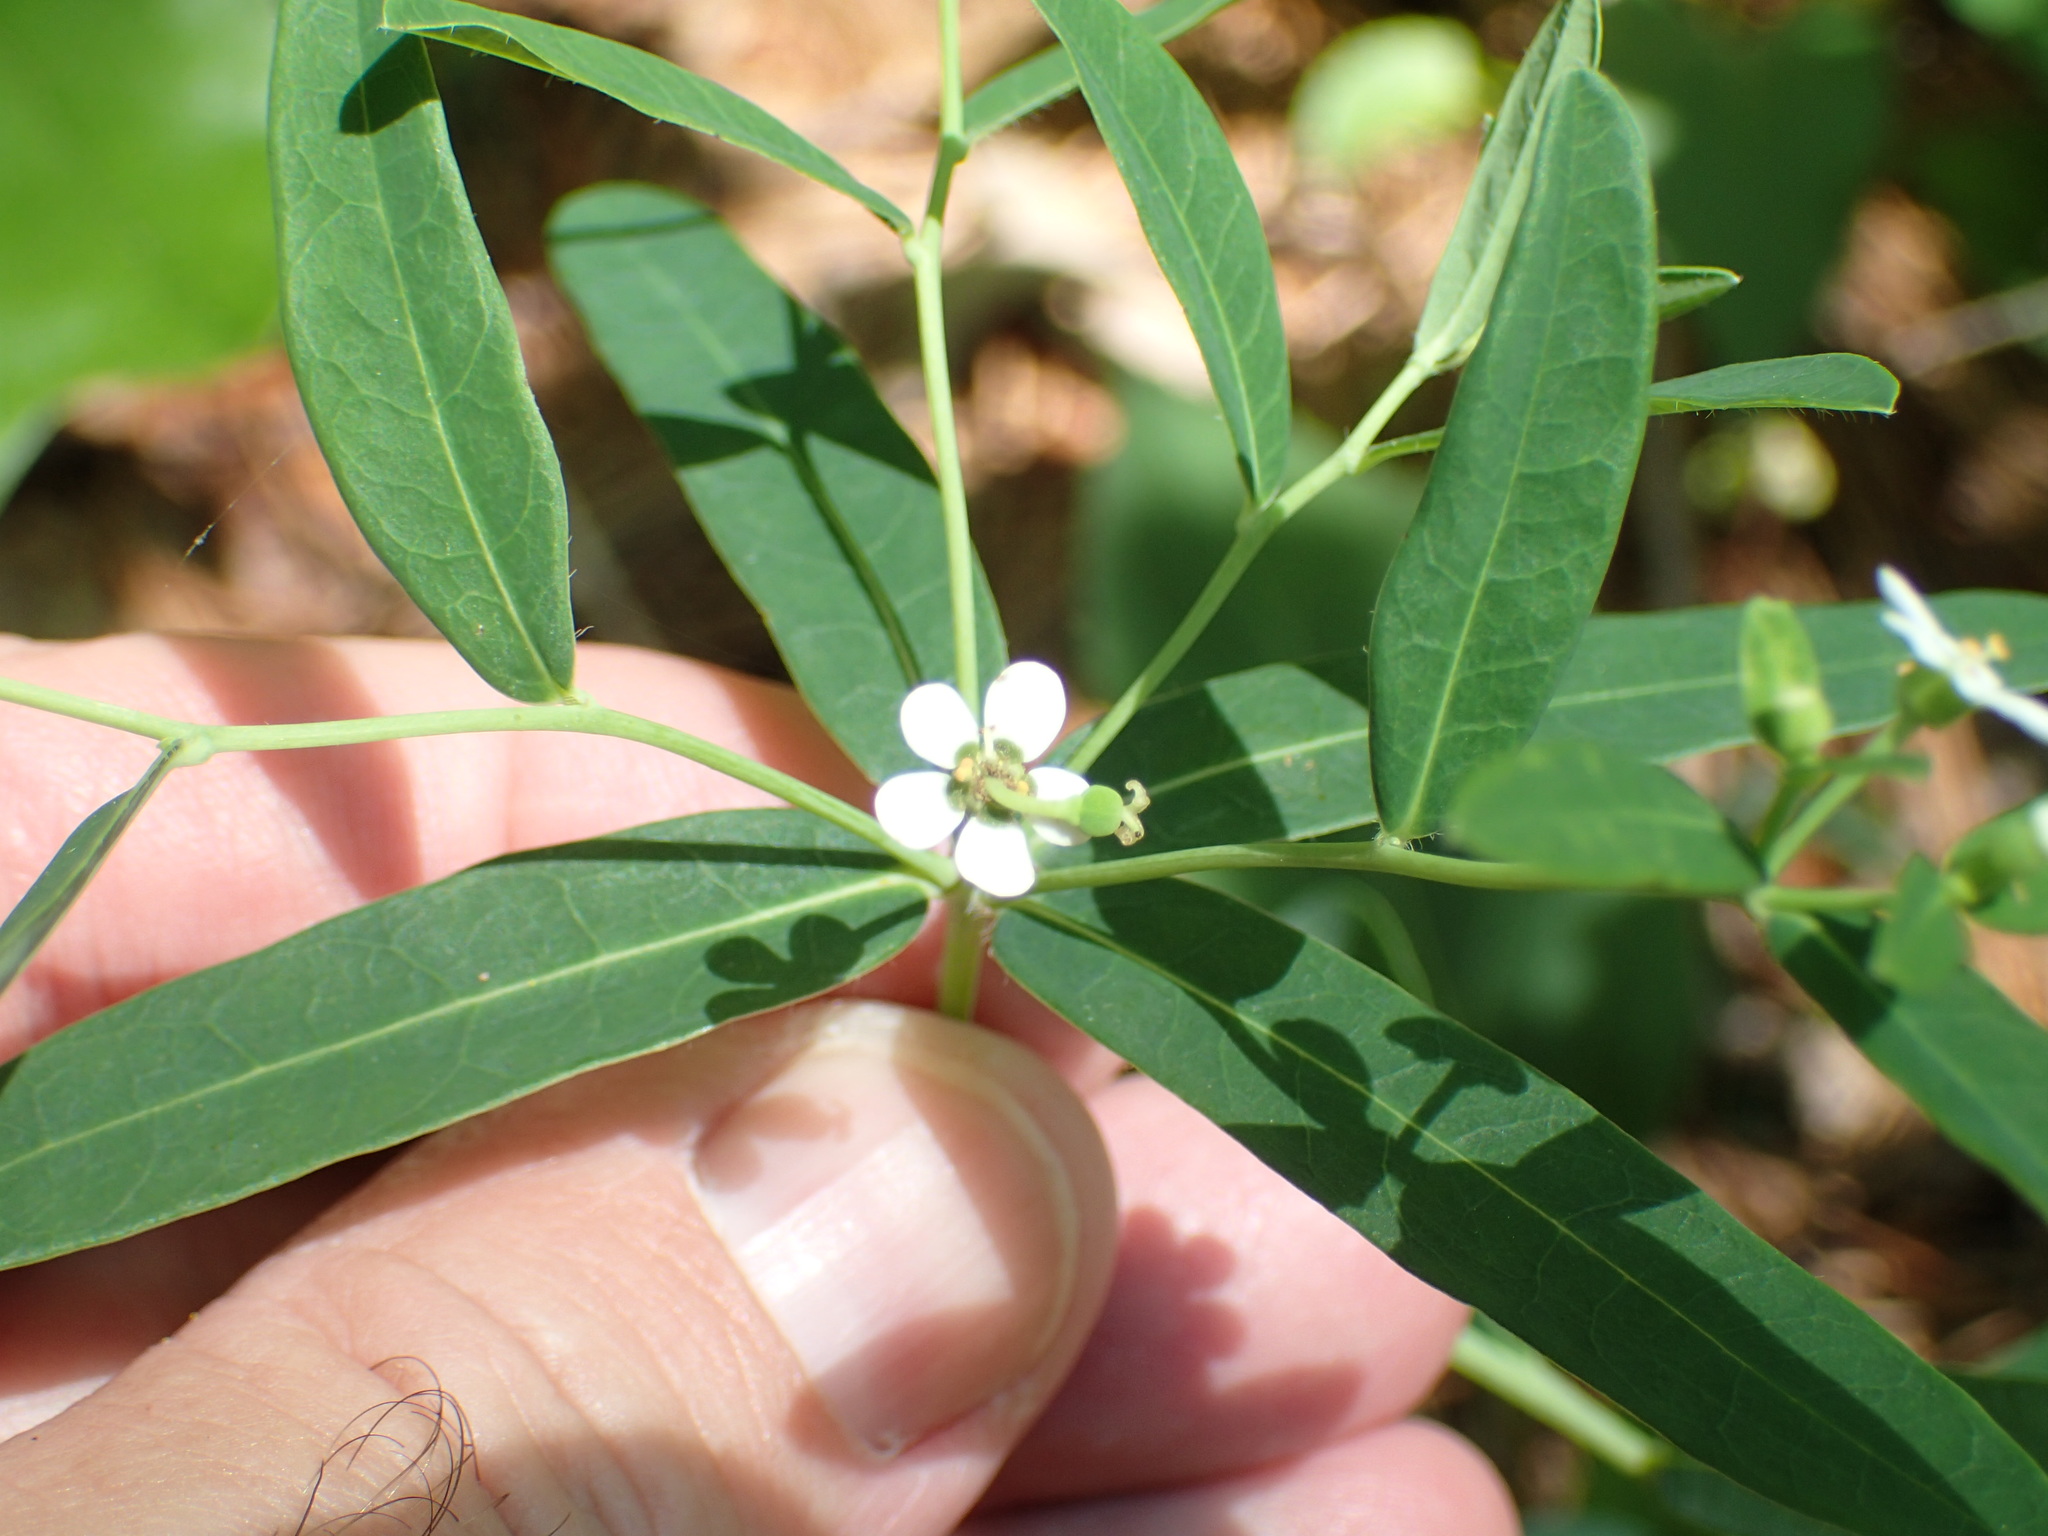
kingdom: Plantae
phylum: Tracheophyta
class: Magnoliopsida
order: Malpighiales
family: Euphorbiaceae
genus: Euphorbia
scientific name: Euphorbia pubentissima
